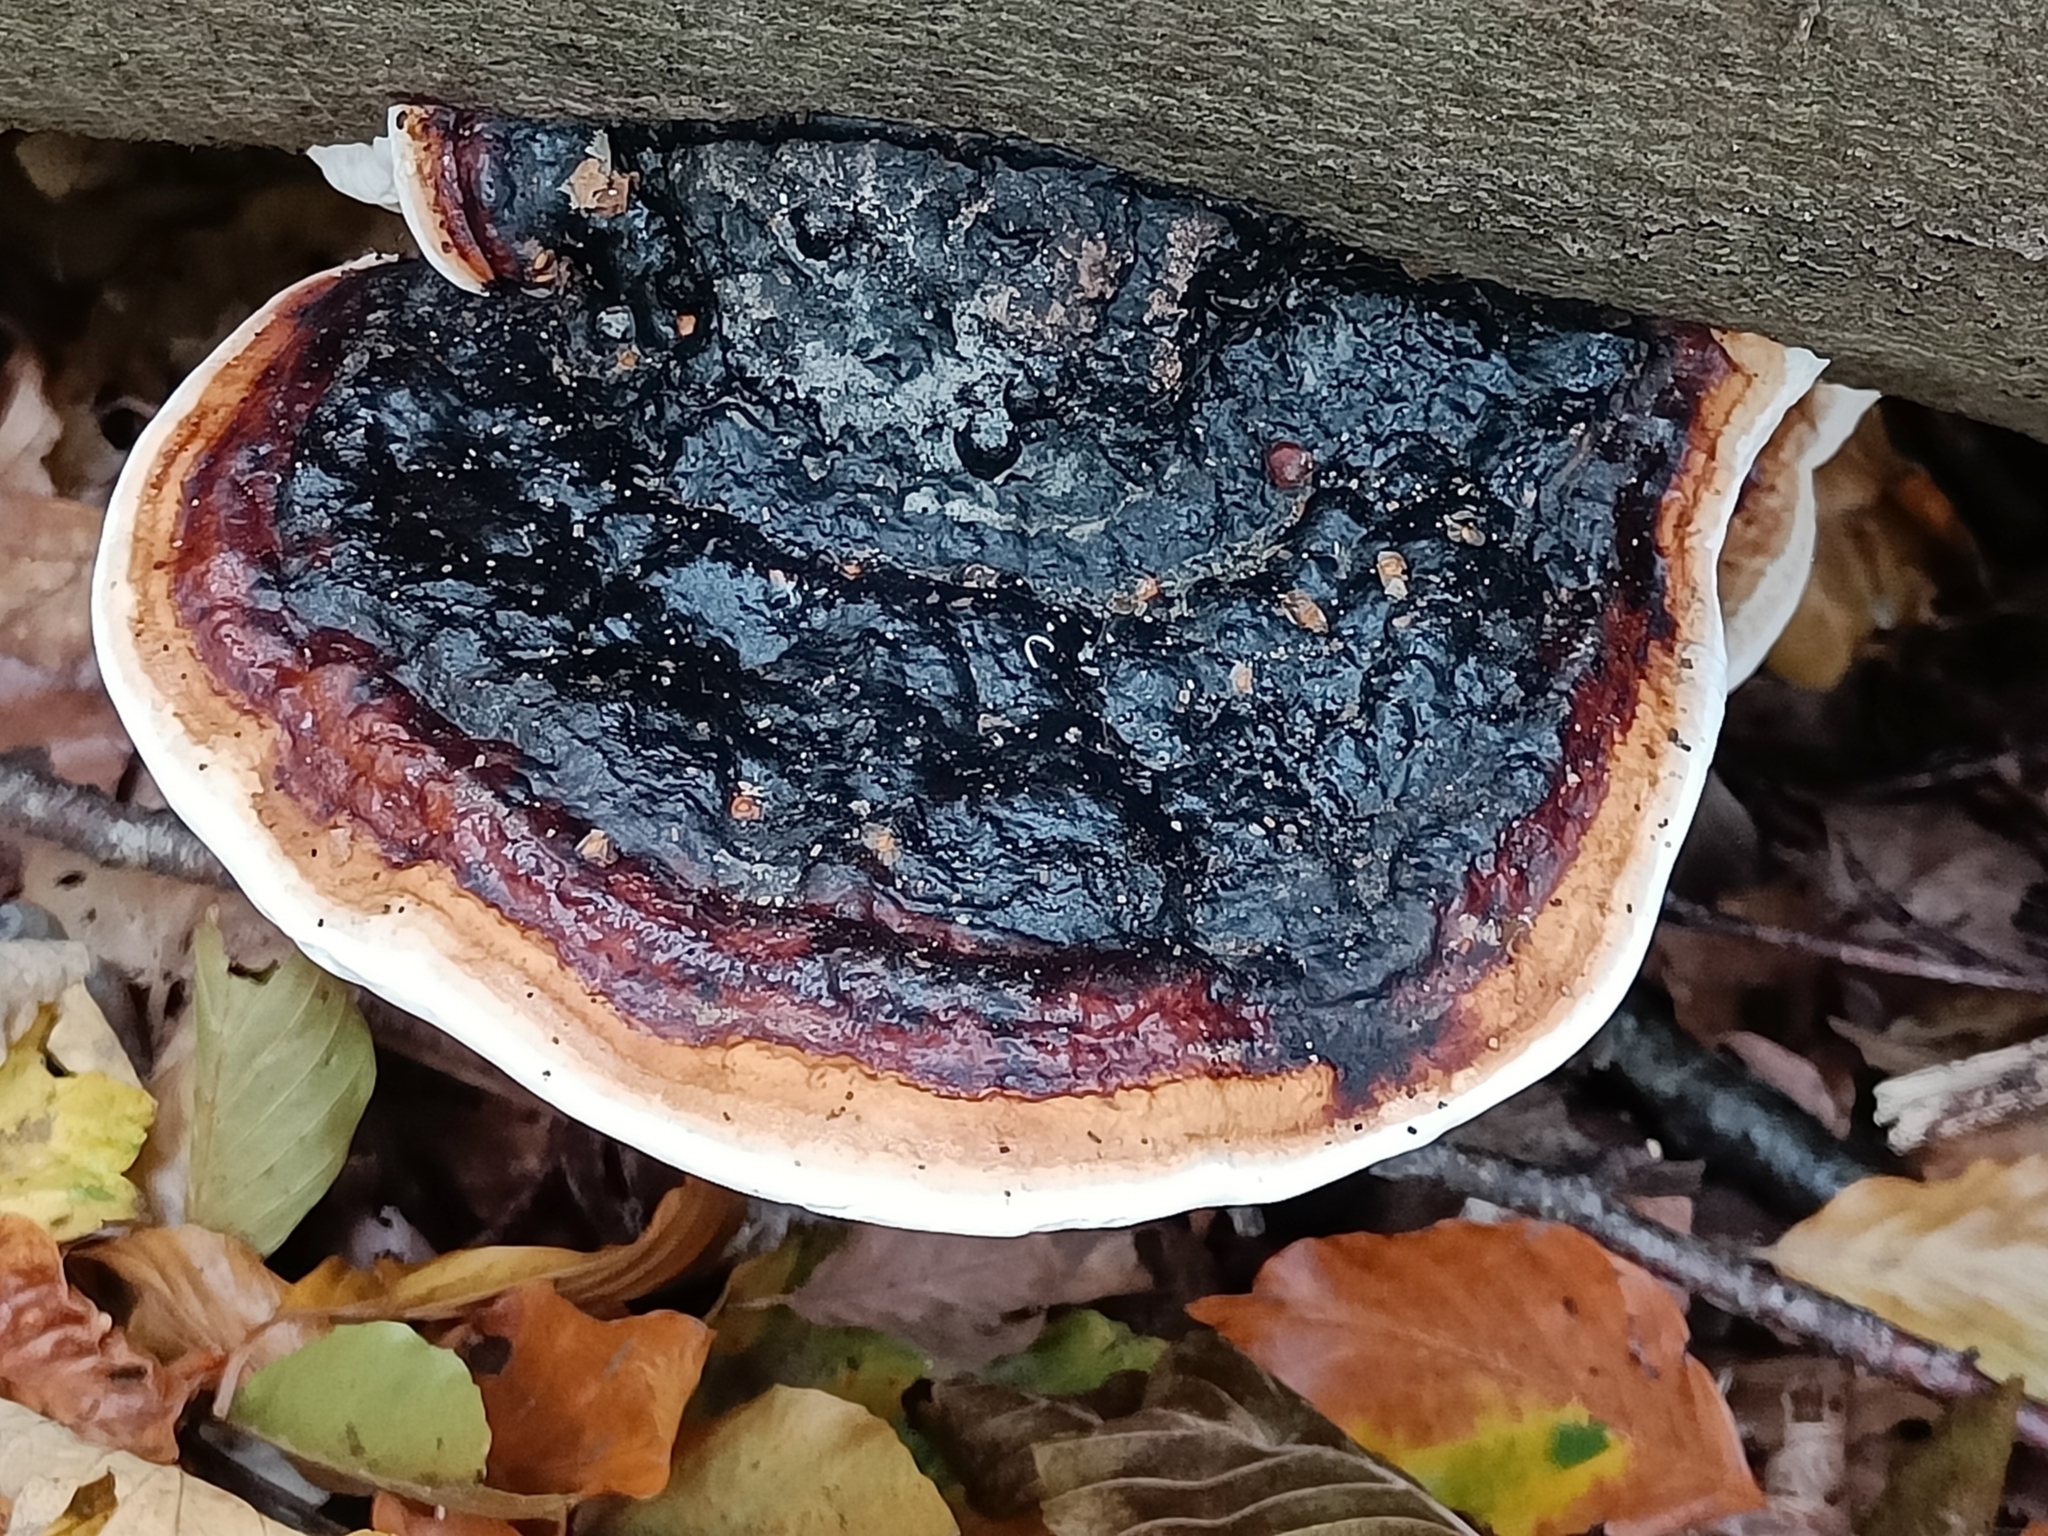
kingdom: Fungi
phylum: Basidiomycota
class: Agaricomycetes
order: Polyporales
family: Fomitopsidaceae
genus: Fomitopsis
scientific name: Fomitopsis pinicola
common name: Red-belted bracket
